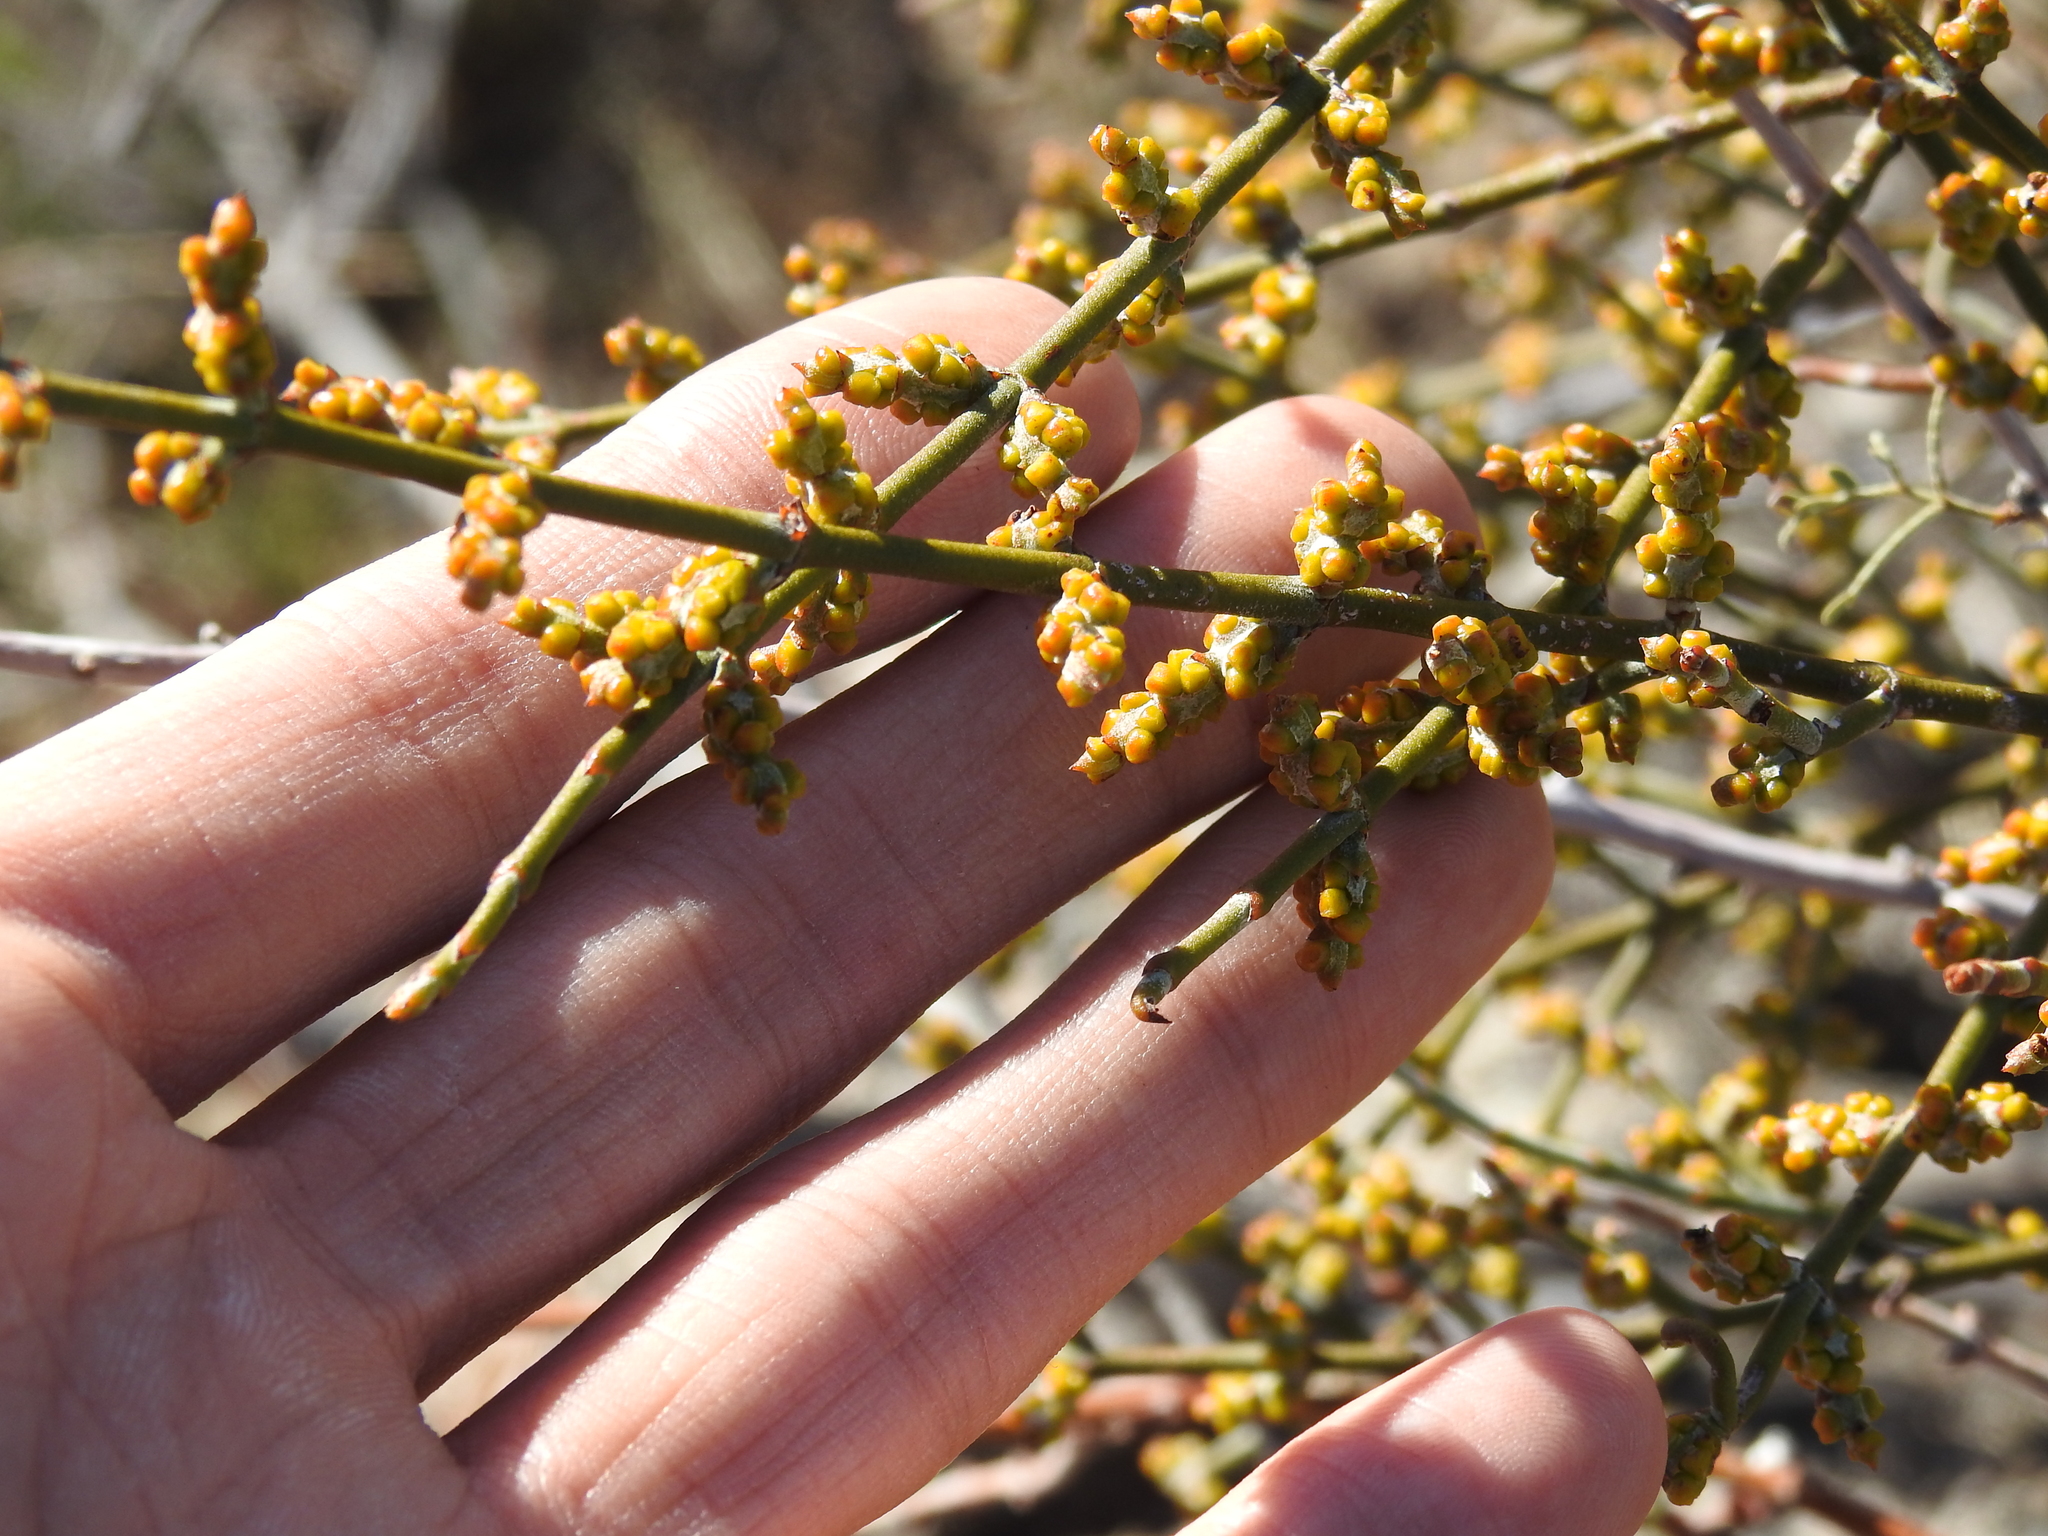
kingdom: Plantae
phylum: Tracheophyta
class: Magnoliopsida
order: Santalales
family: Viscaceae
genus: Phoradendron
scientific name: Phoradendron californicum
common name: Acacia mistletoe
